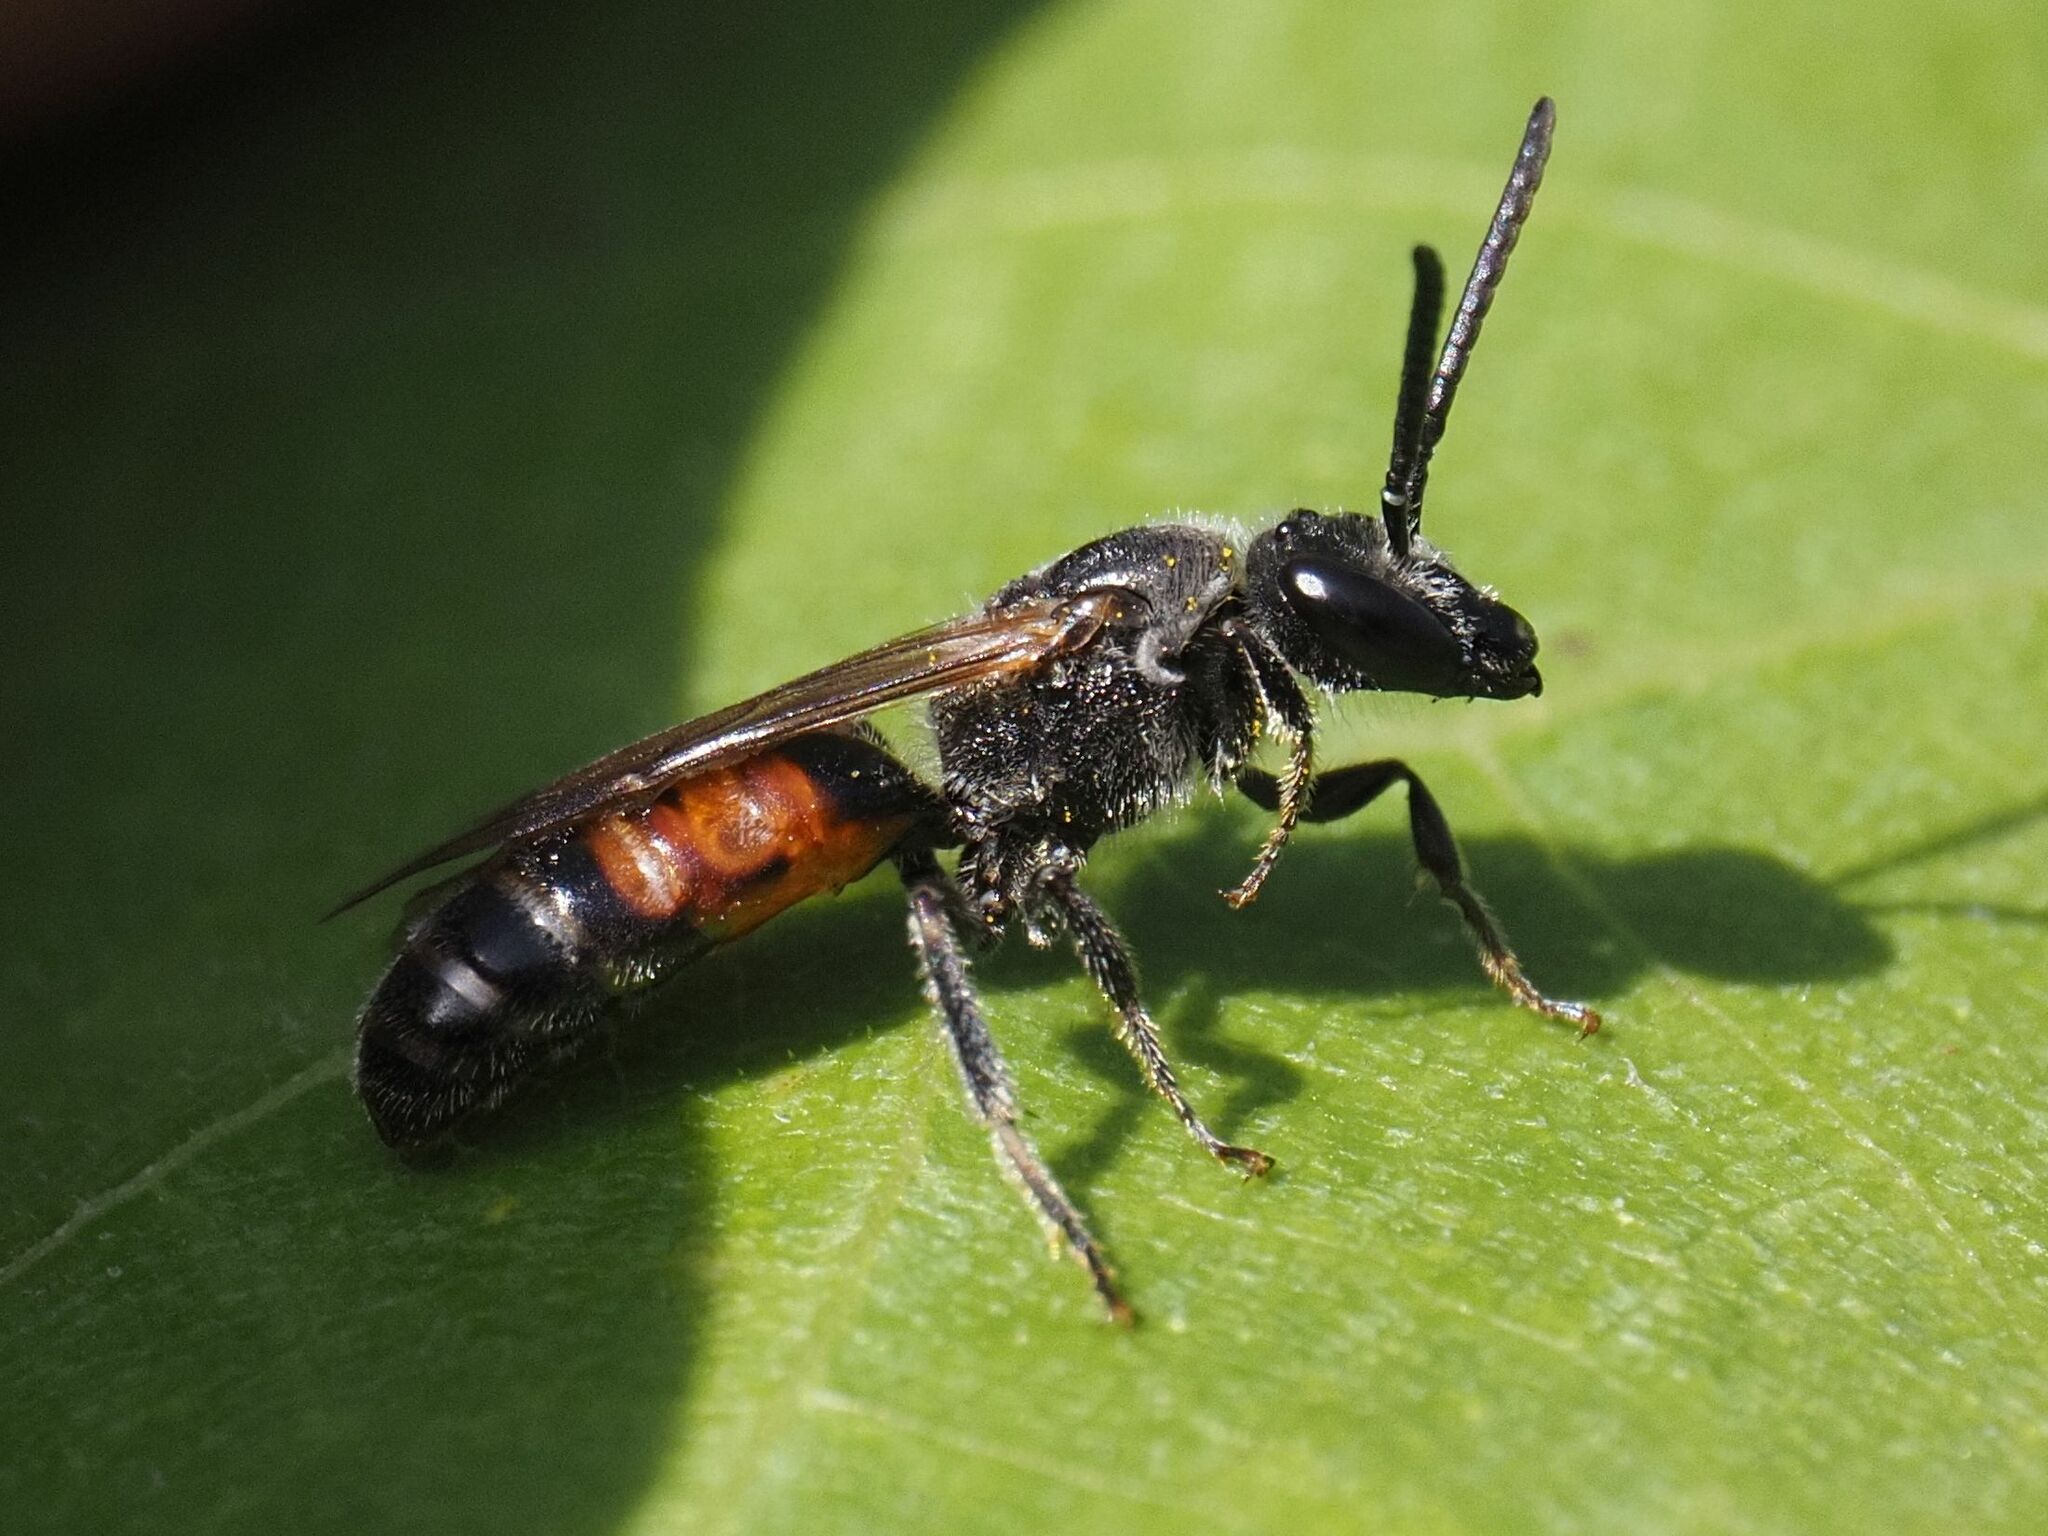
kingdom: Animalia
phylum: Arthropoda
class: Insecta
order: Hymenoptera
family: Halictidae
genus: Lasioglossum
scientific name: Lasioglossum nigripes
